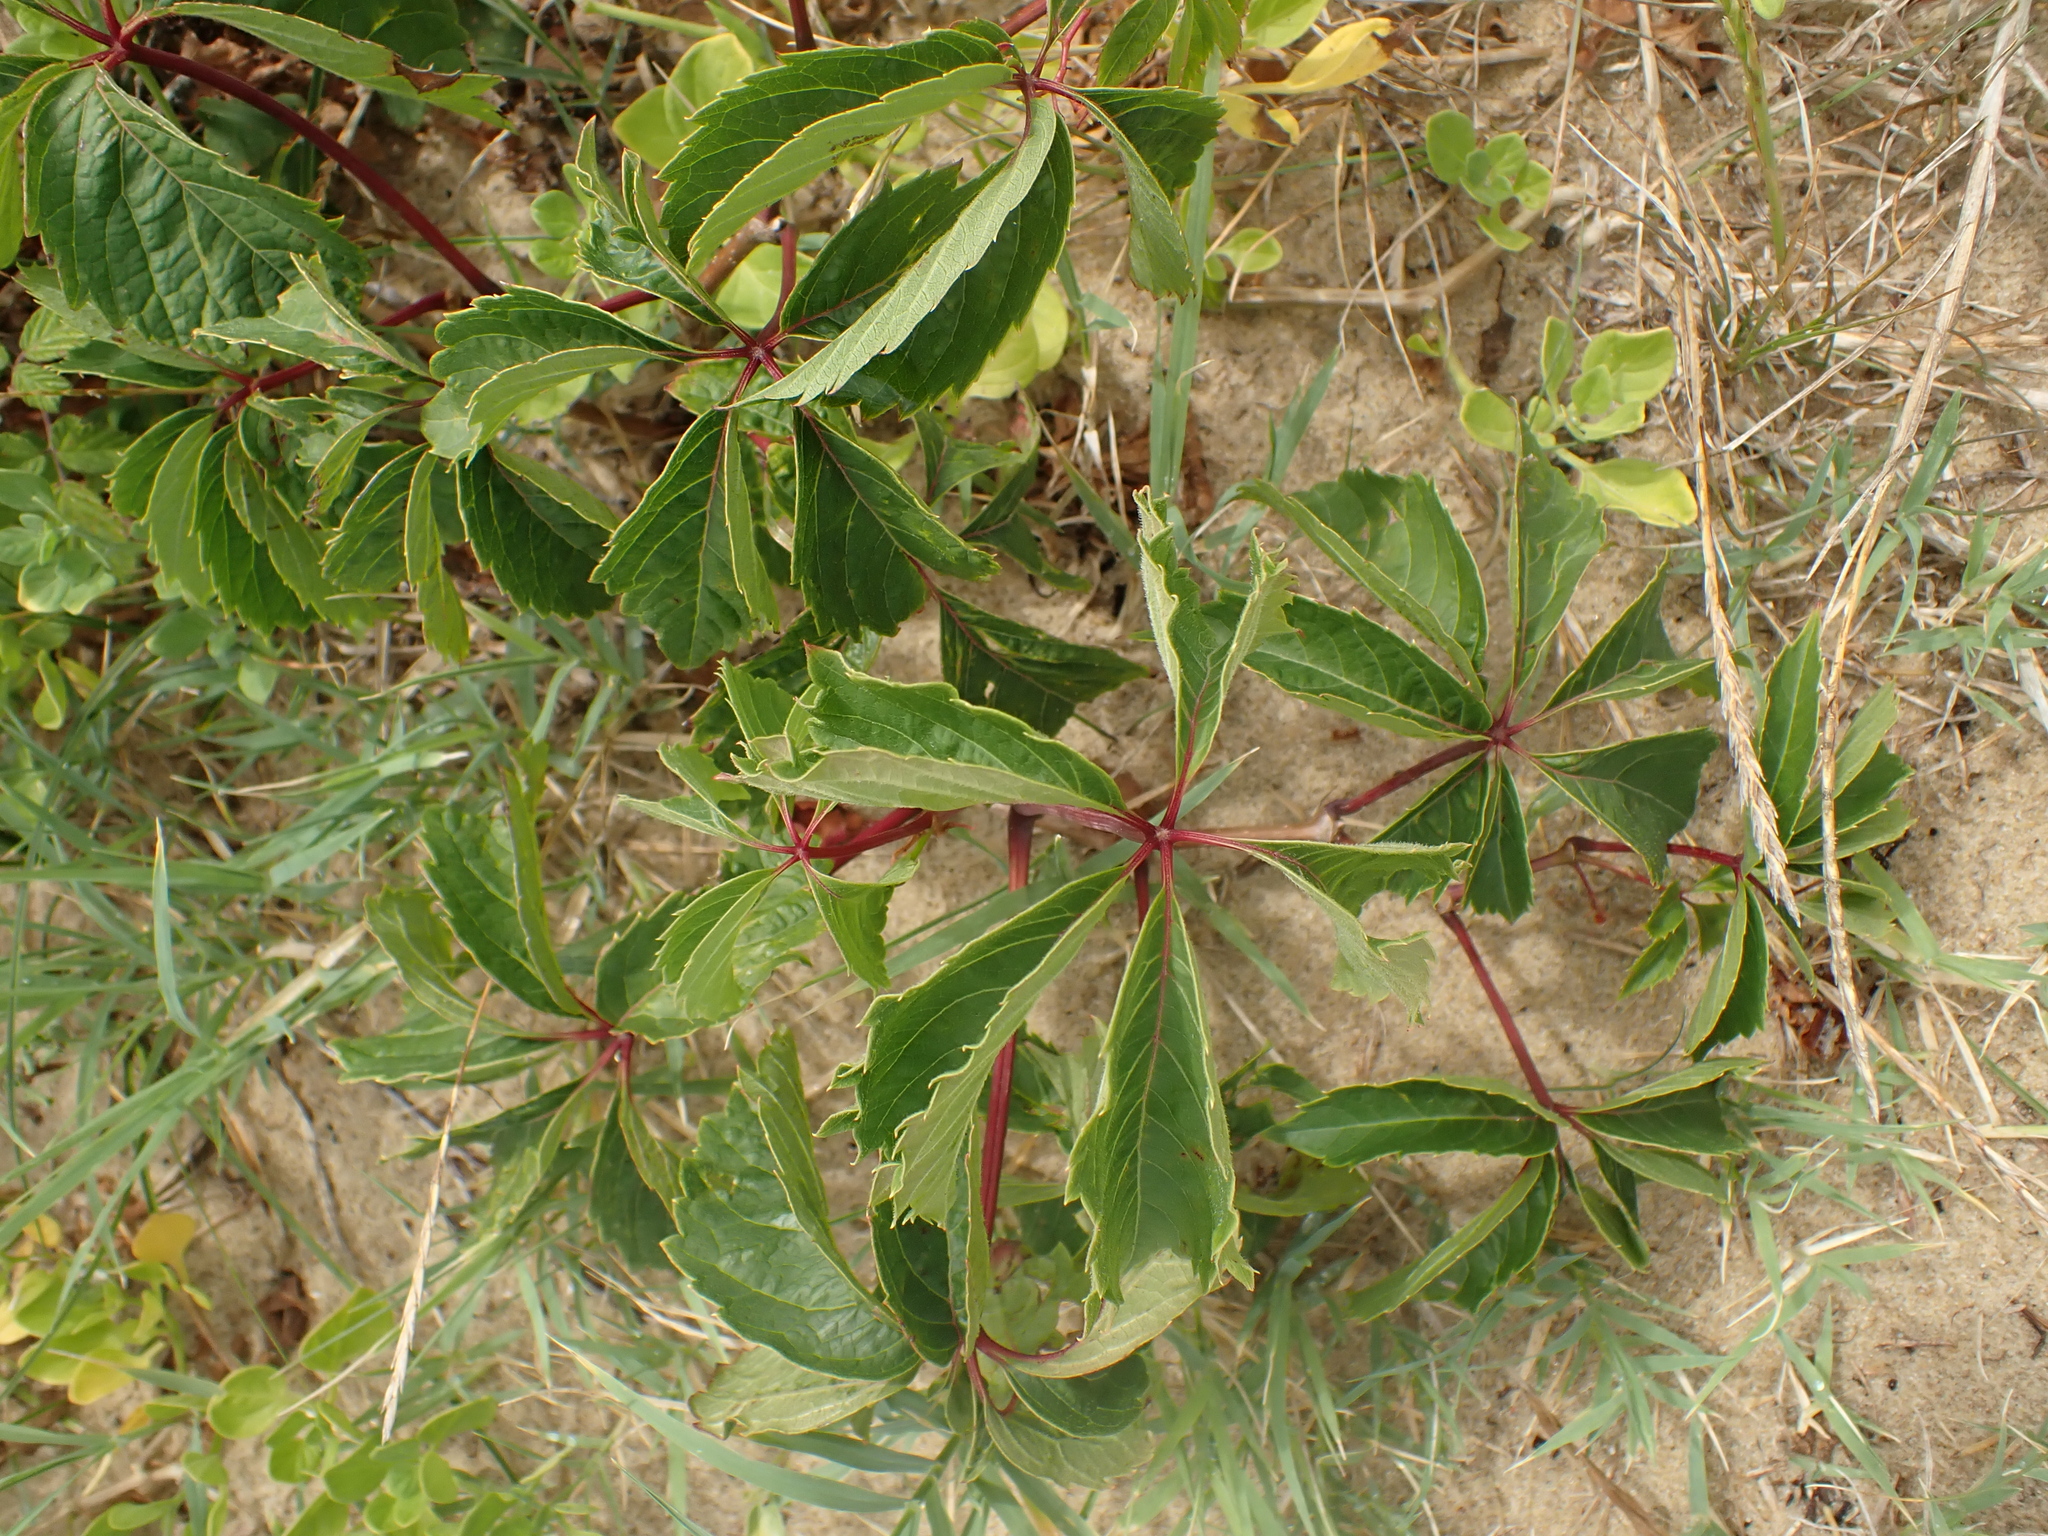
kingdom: Plantae
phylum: Tracheophyta
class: Magnoliopsida
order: Vitales
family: Vitaceae
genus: Parthenocissus
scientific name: Parthenocissus inserta
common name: False virginia-creeper
